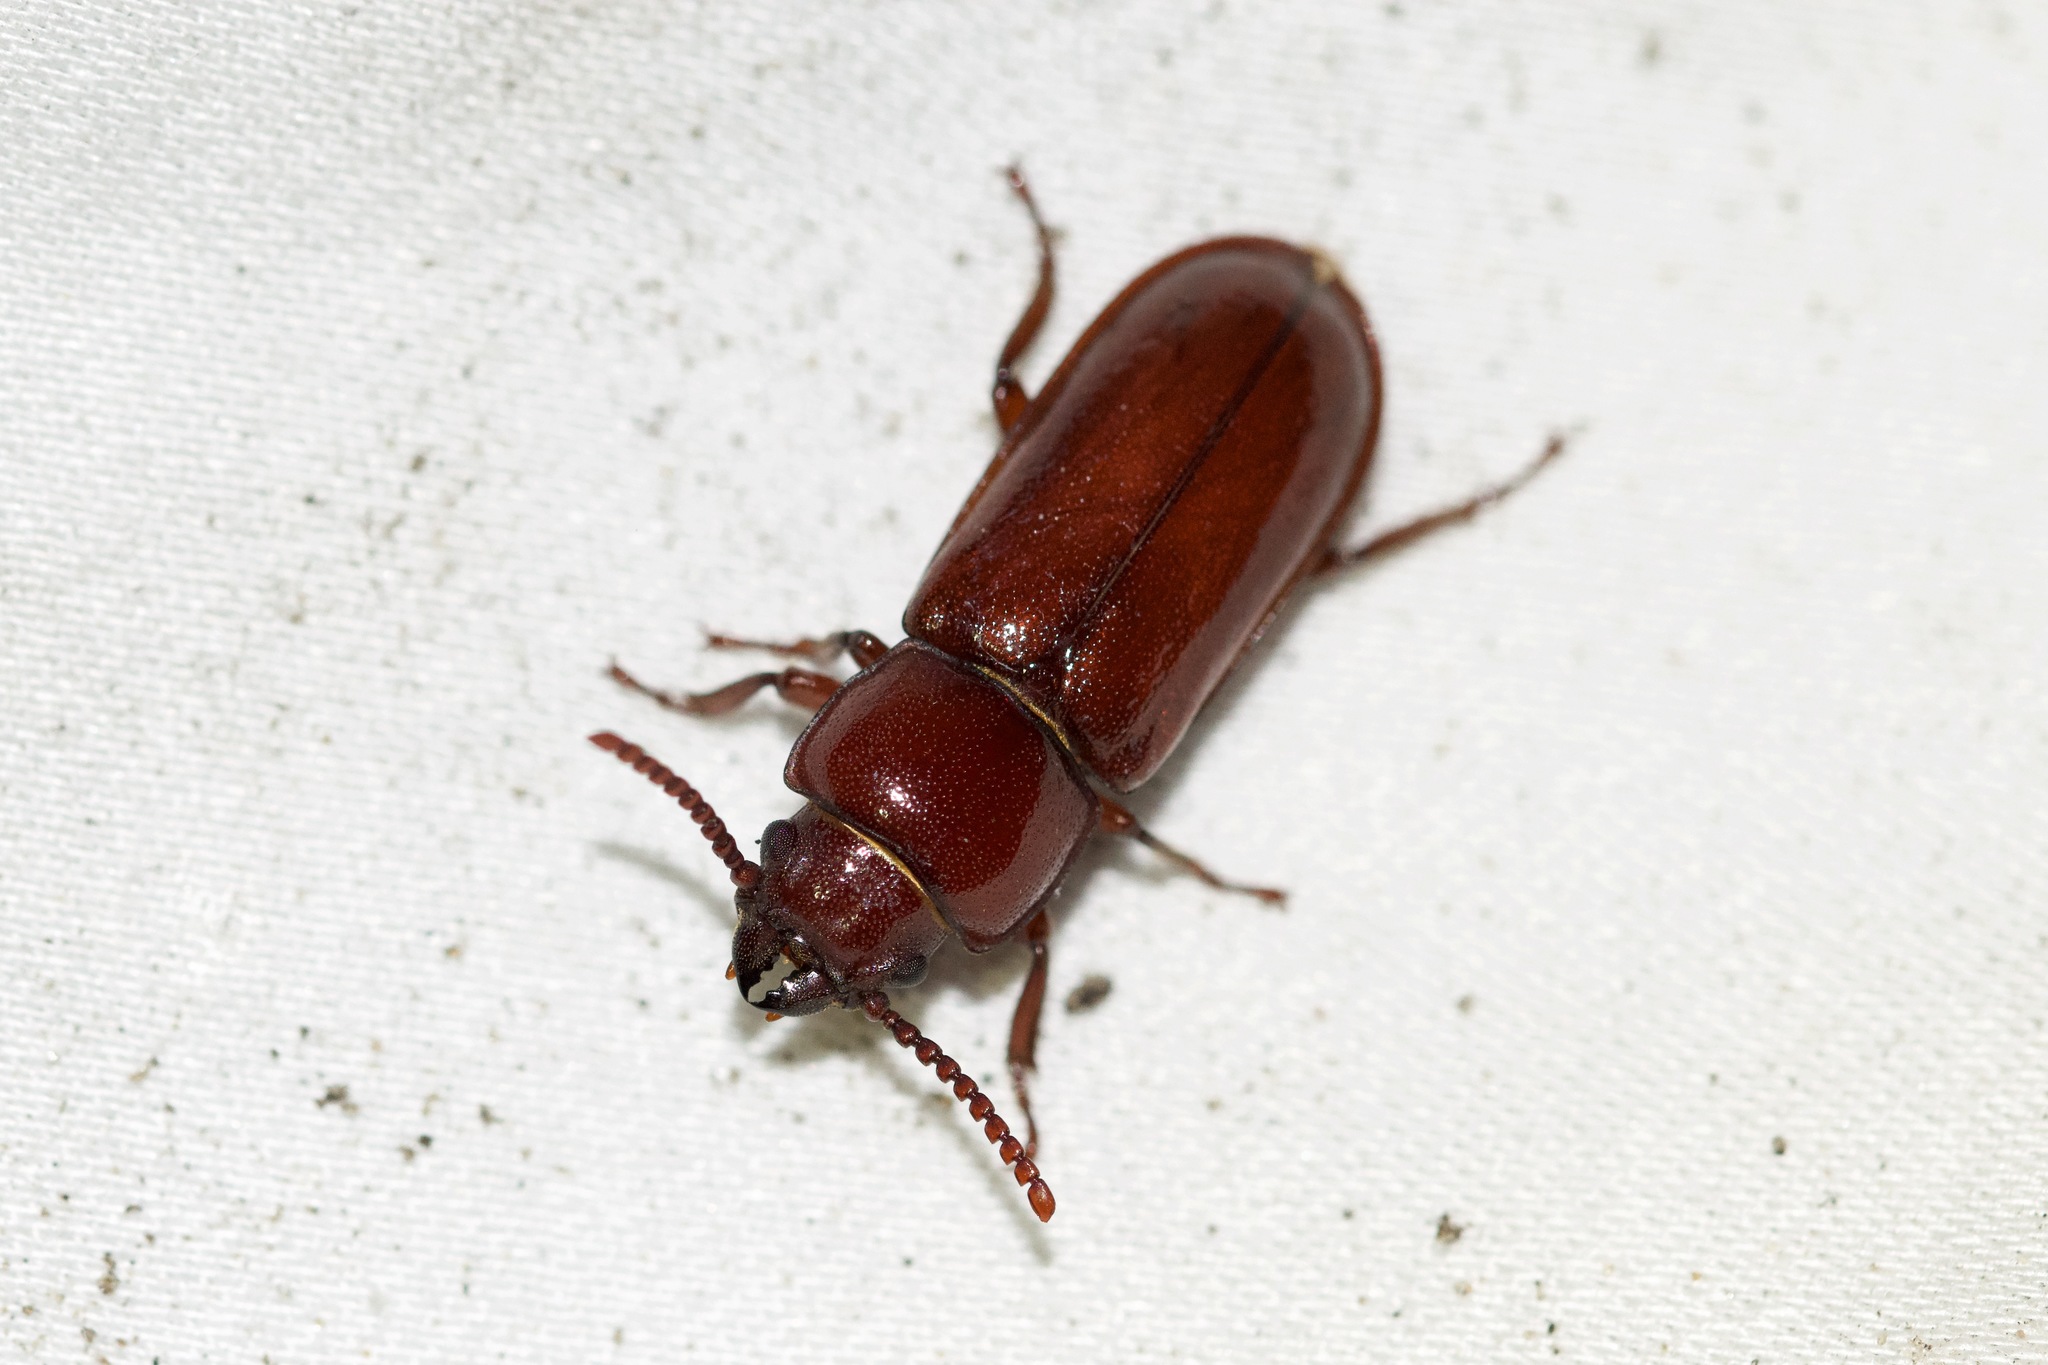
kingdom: Animalia
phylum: Arthropoda
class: Insecta
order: Coleoptera
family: Cerambycidae
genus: Neandra
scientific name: Neandra brunnea
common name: Pole borer
